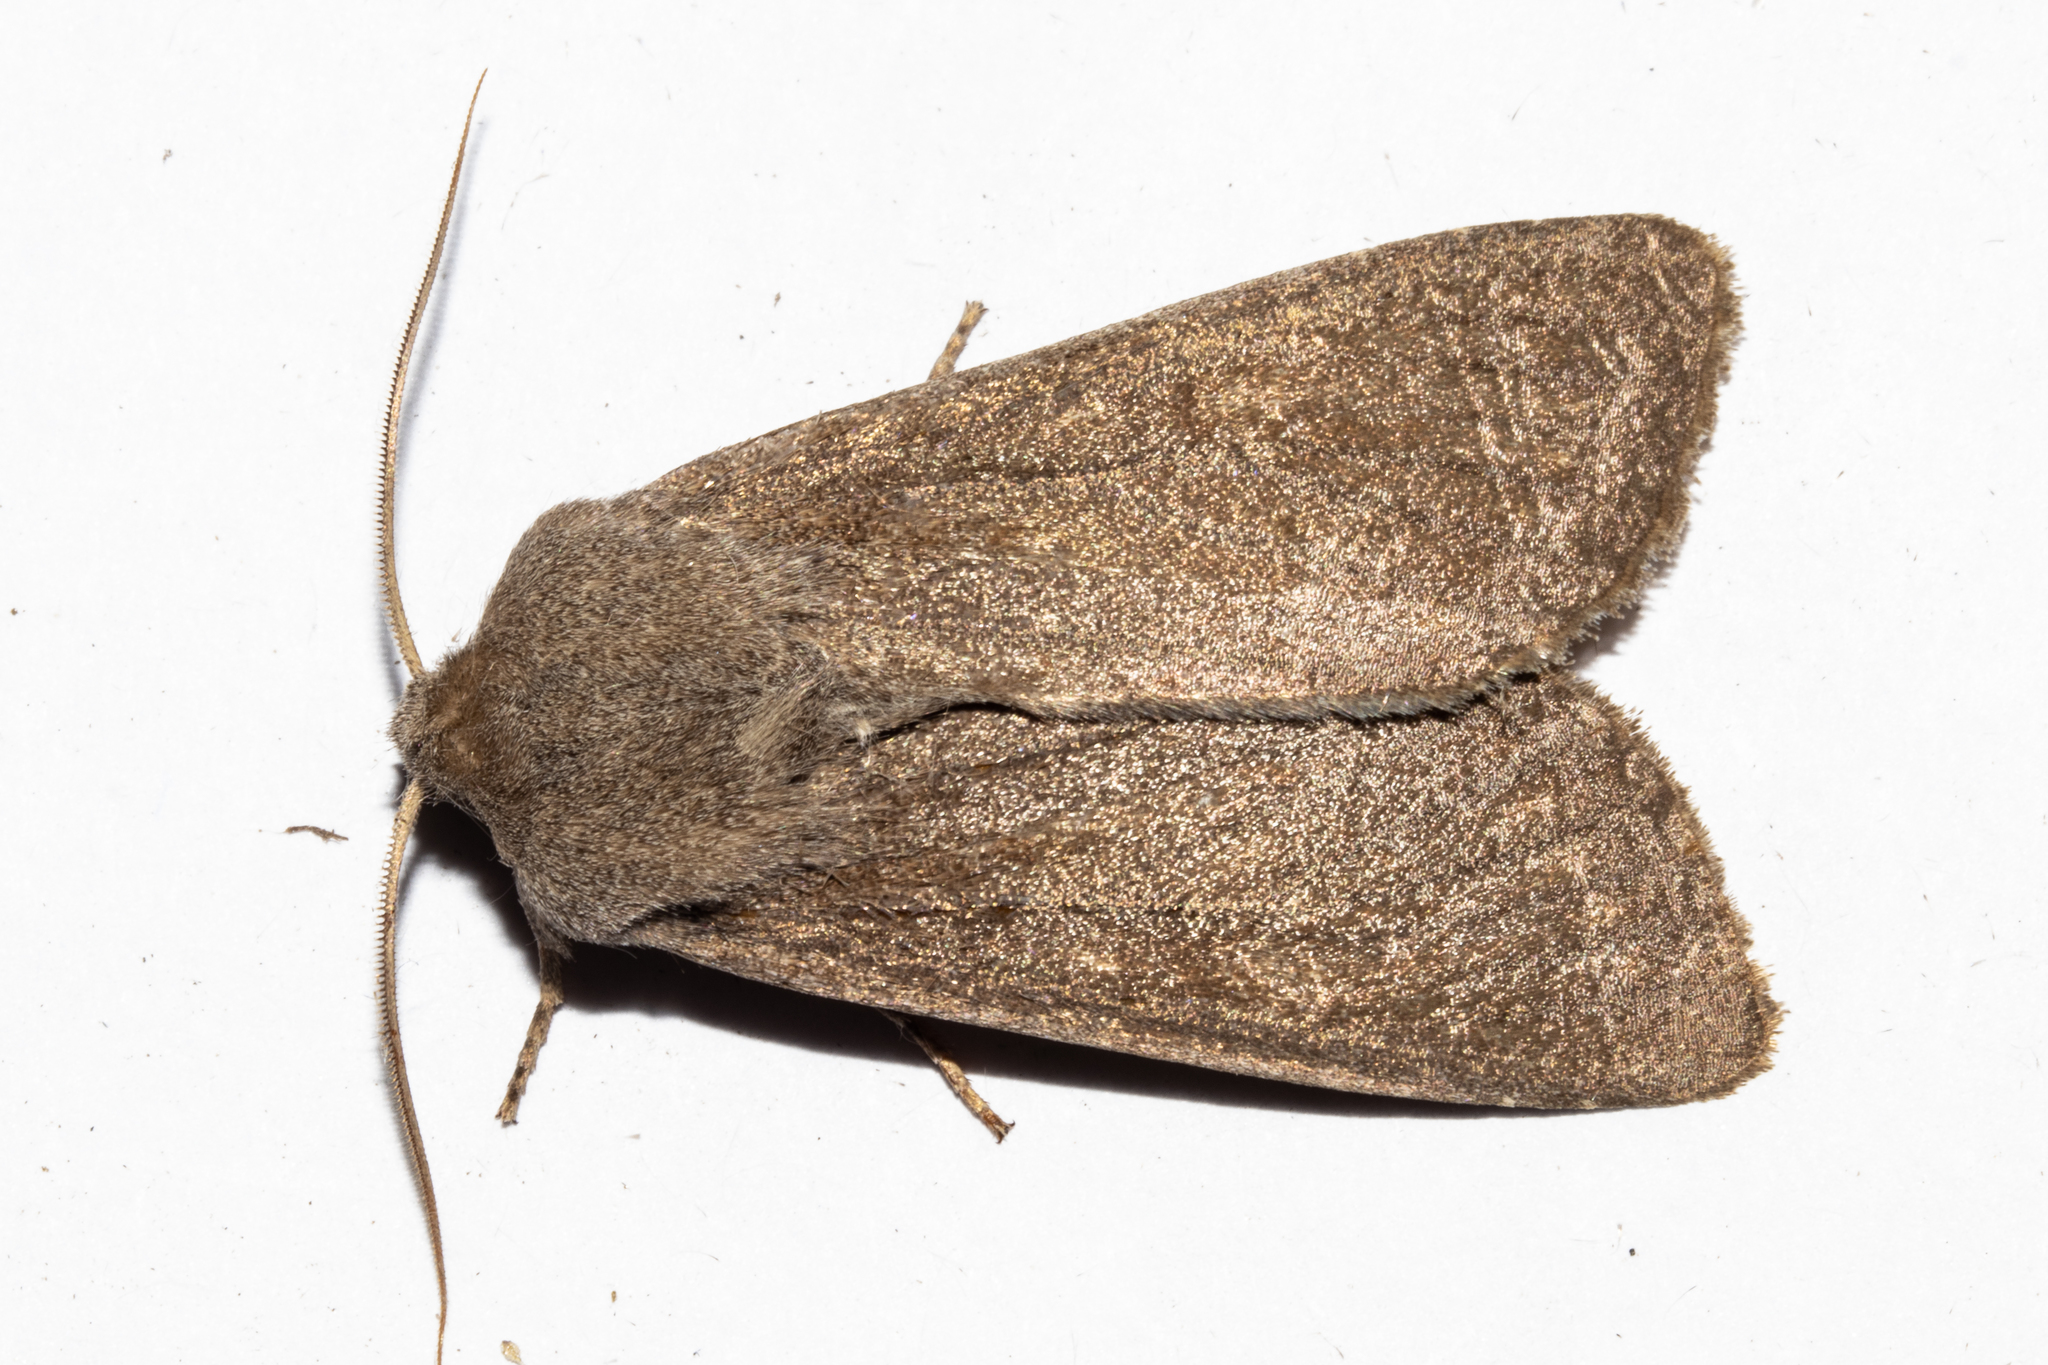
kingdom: Animalia
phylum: Arthropoda
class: Insecta
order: Lepidoptera
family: Noctuidae
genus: Ichneutica
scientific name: Ichneutica nullifera
